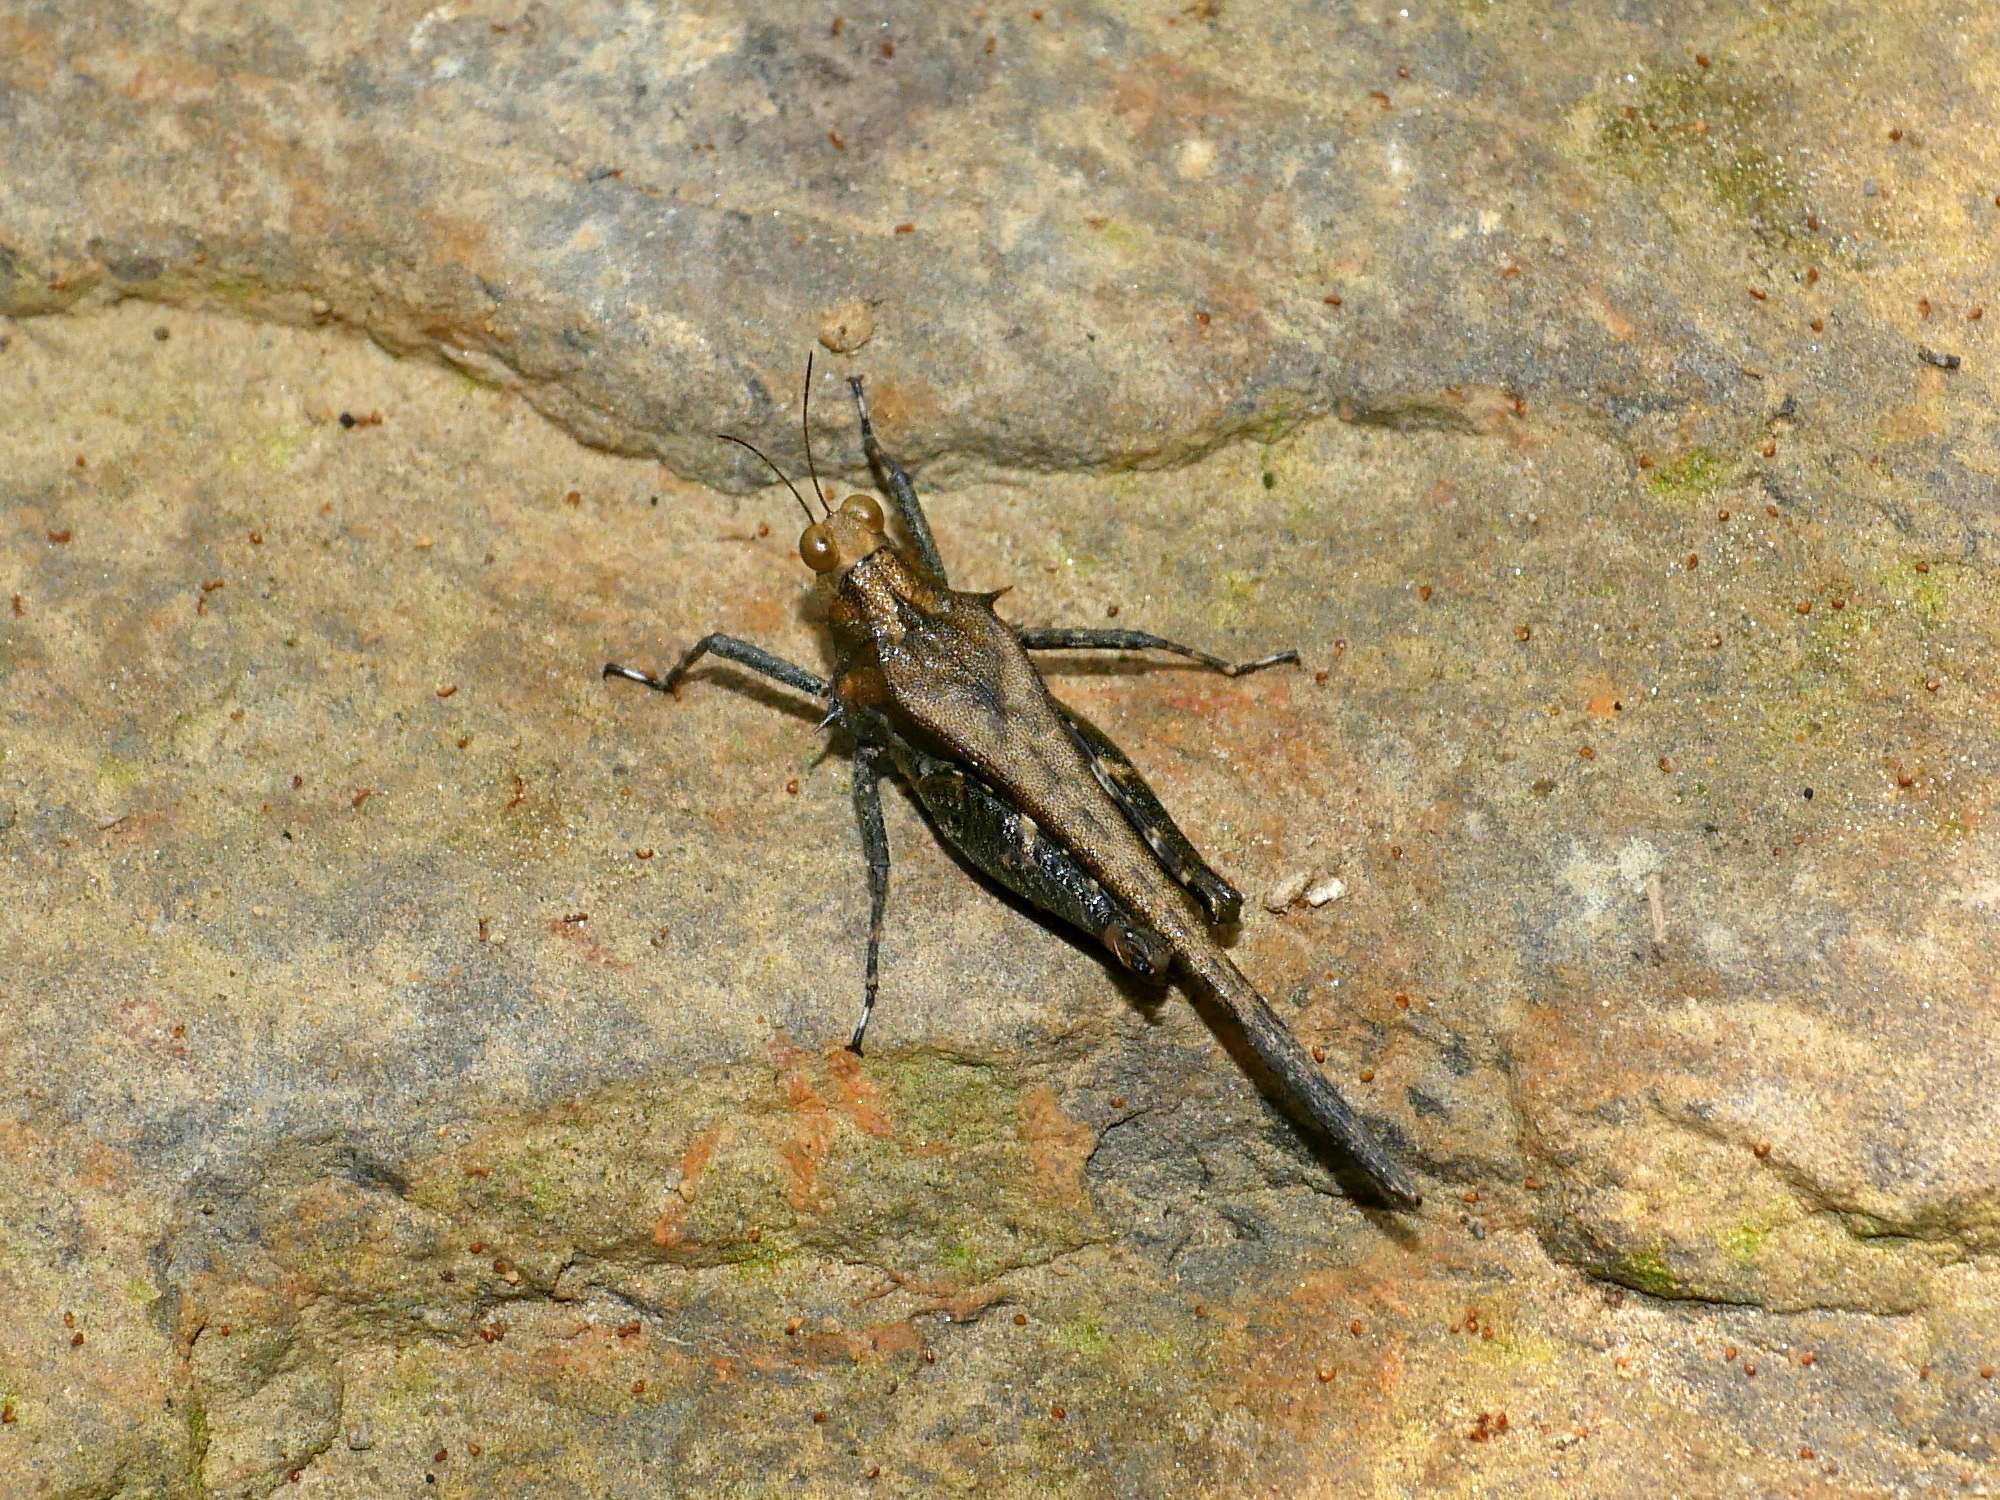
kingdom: Animalia
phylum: Arthropoda
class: Insecta
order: Orthoptera
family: Tetrigidae
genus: Criotettix
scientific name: Criotettix bispinosus
